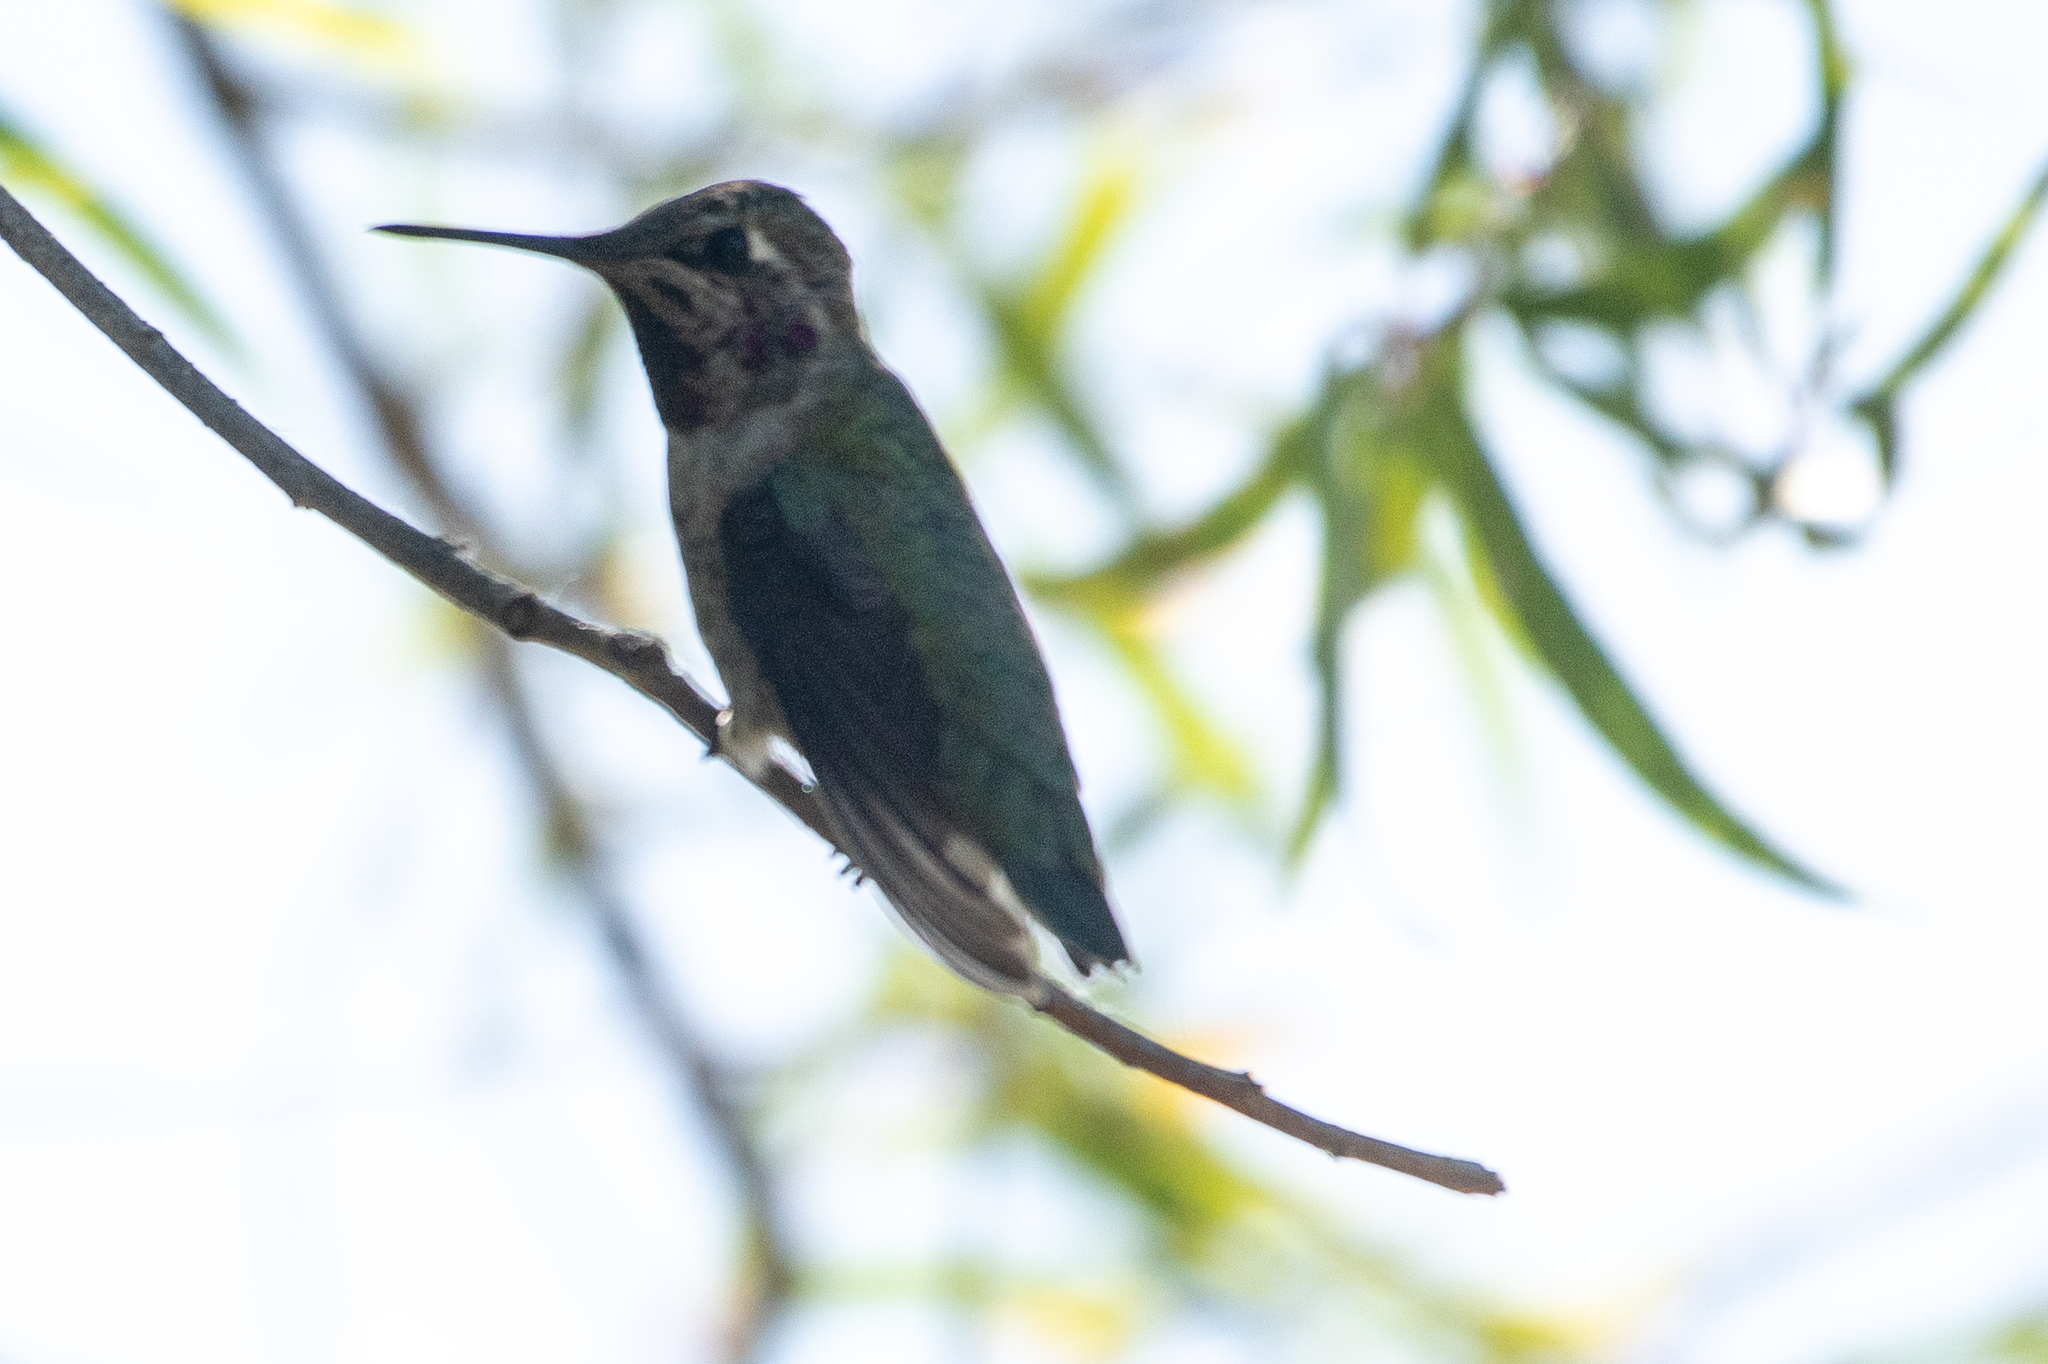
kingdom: Animalia
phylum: Chordata
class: Aves
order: Apodiformes
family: Trochilidae
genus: Calypte
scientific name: Calypte anna
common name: Anna's hummingbird
